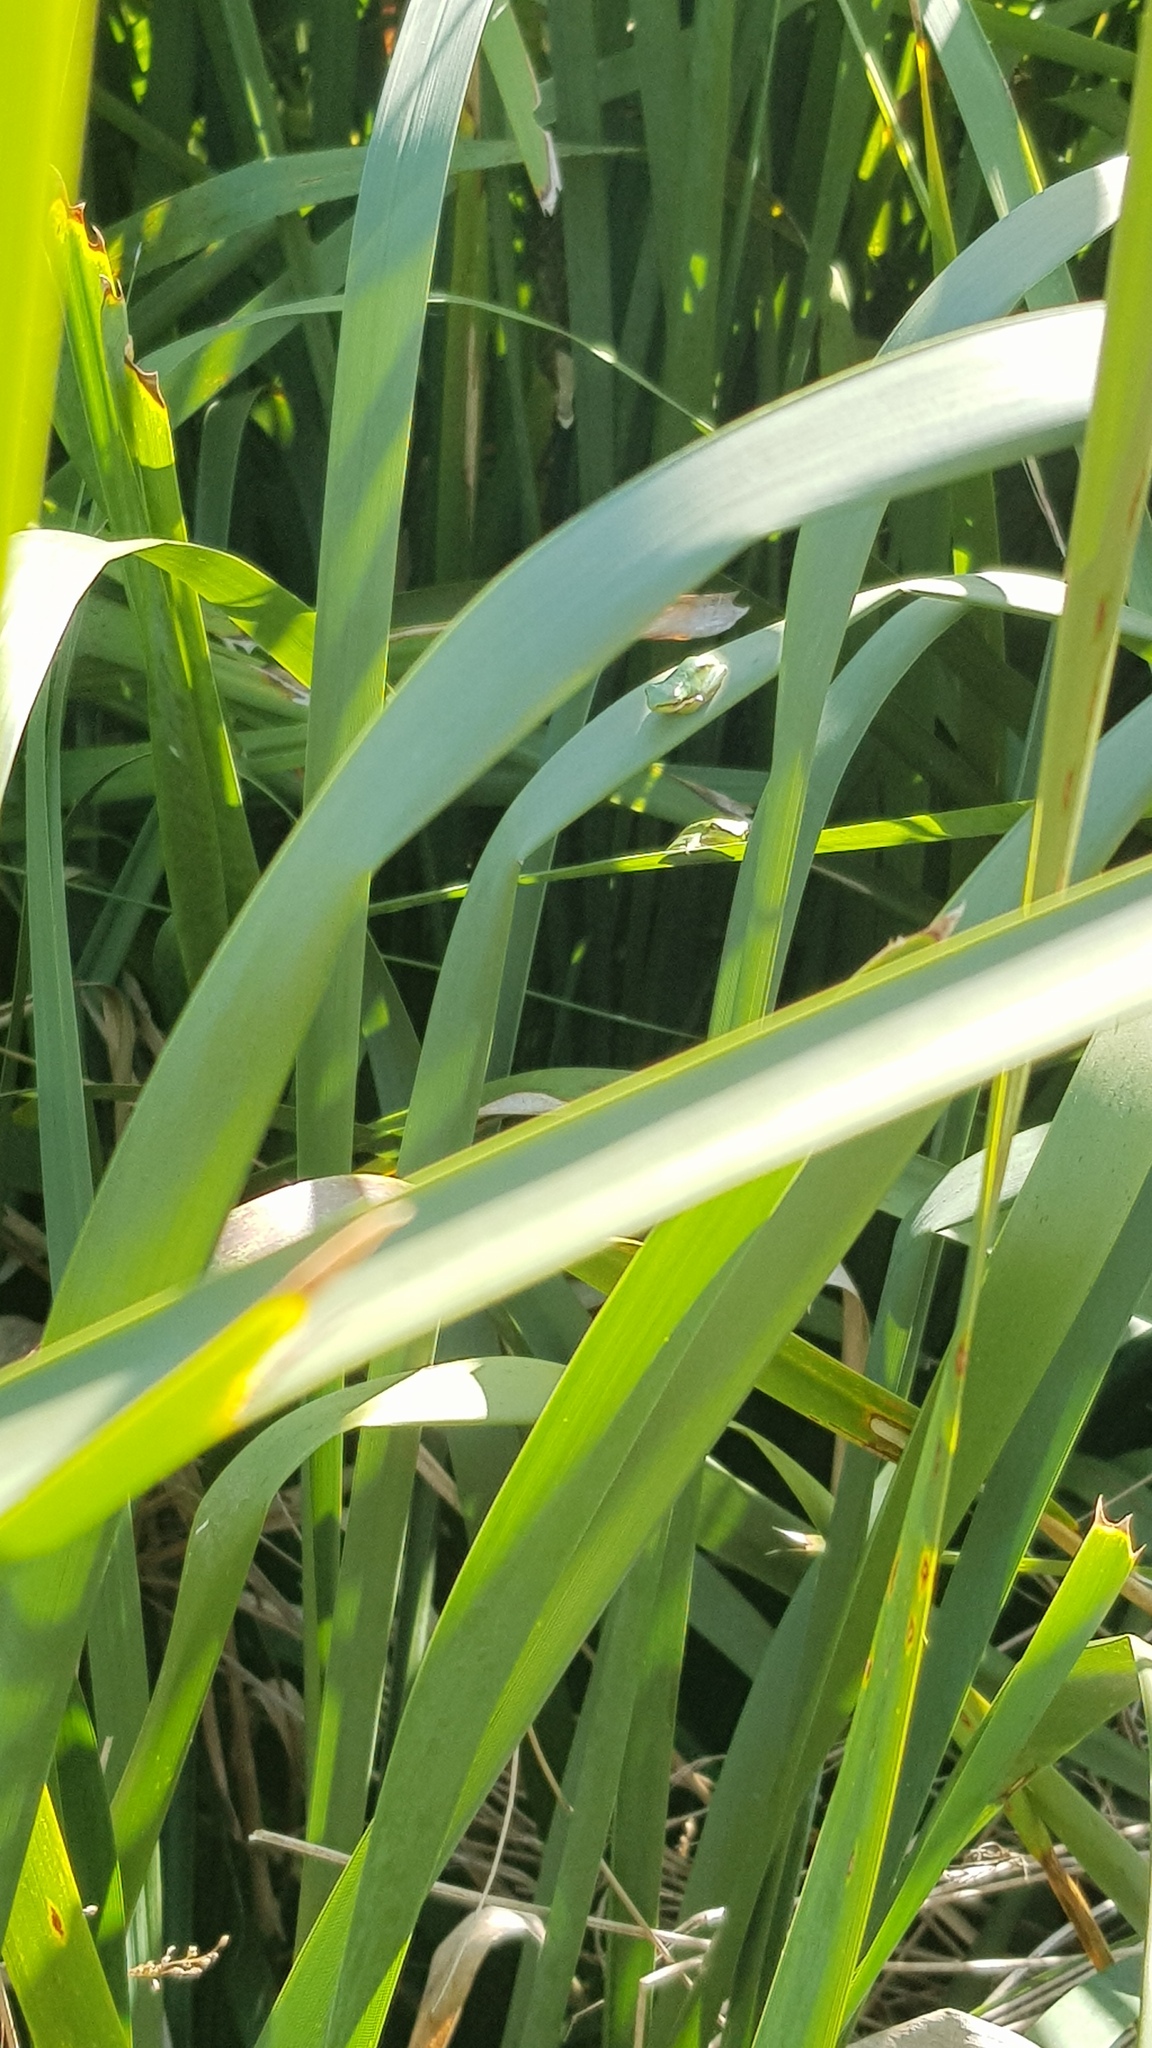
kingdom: Animalia
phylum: Chordata
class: Amphibia
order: Anura
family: Pelodryadidae
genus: Litoria
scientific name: Litoria fallax
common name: Eastern dwarf treefrog
